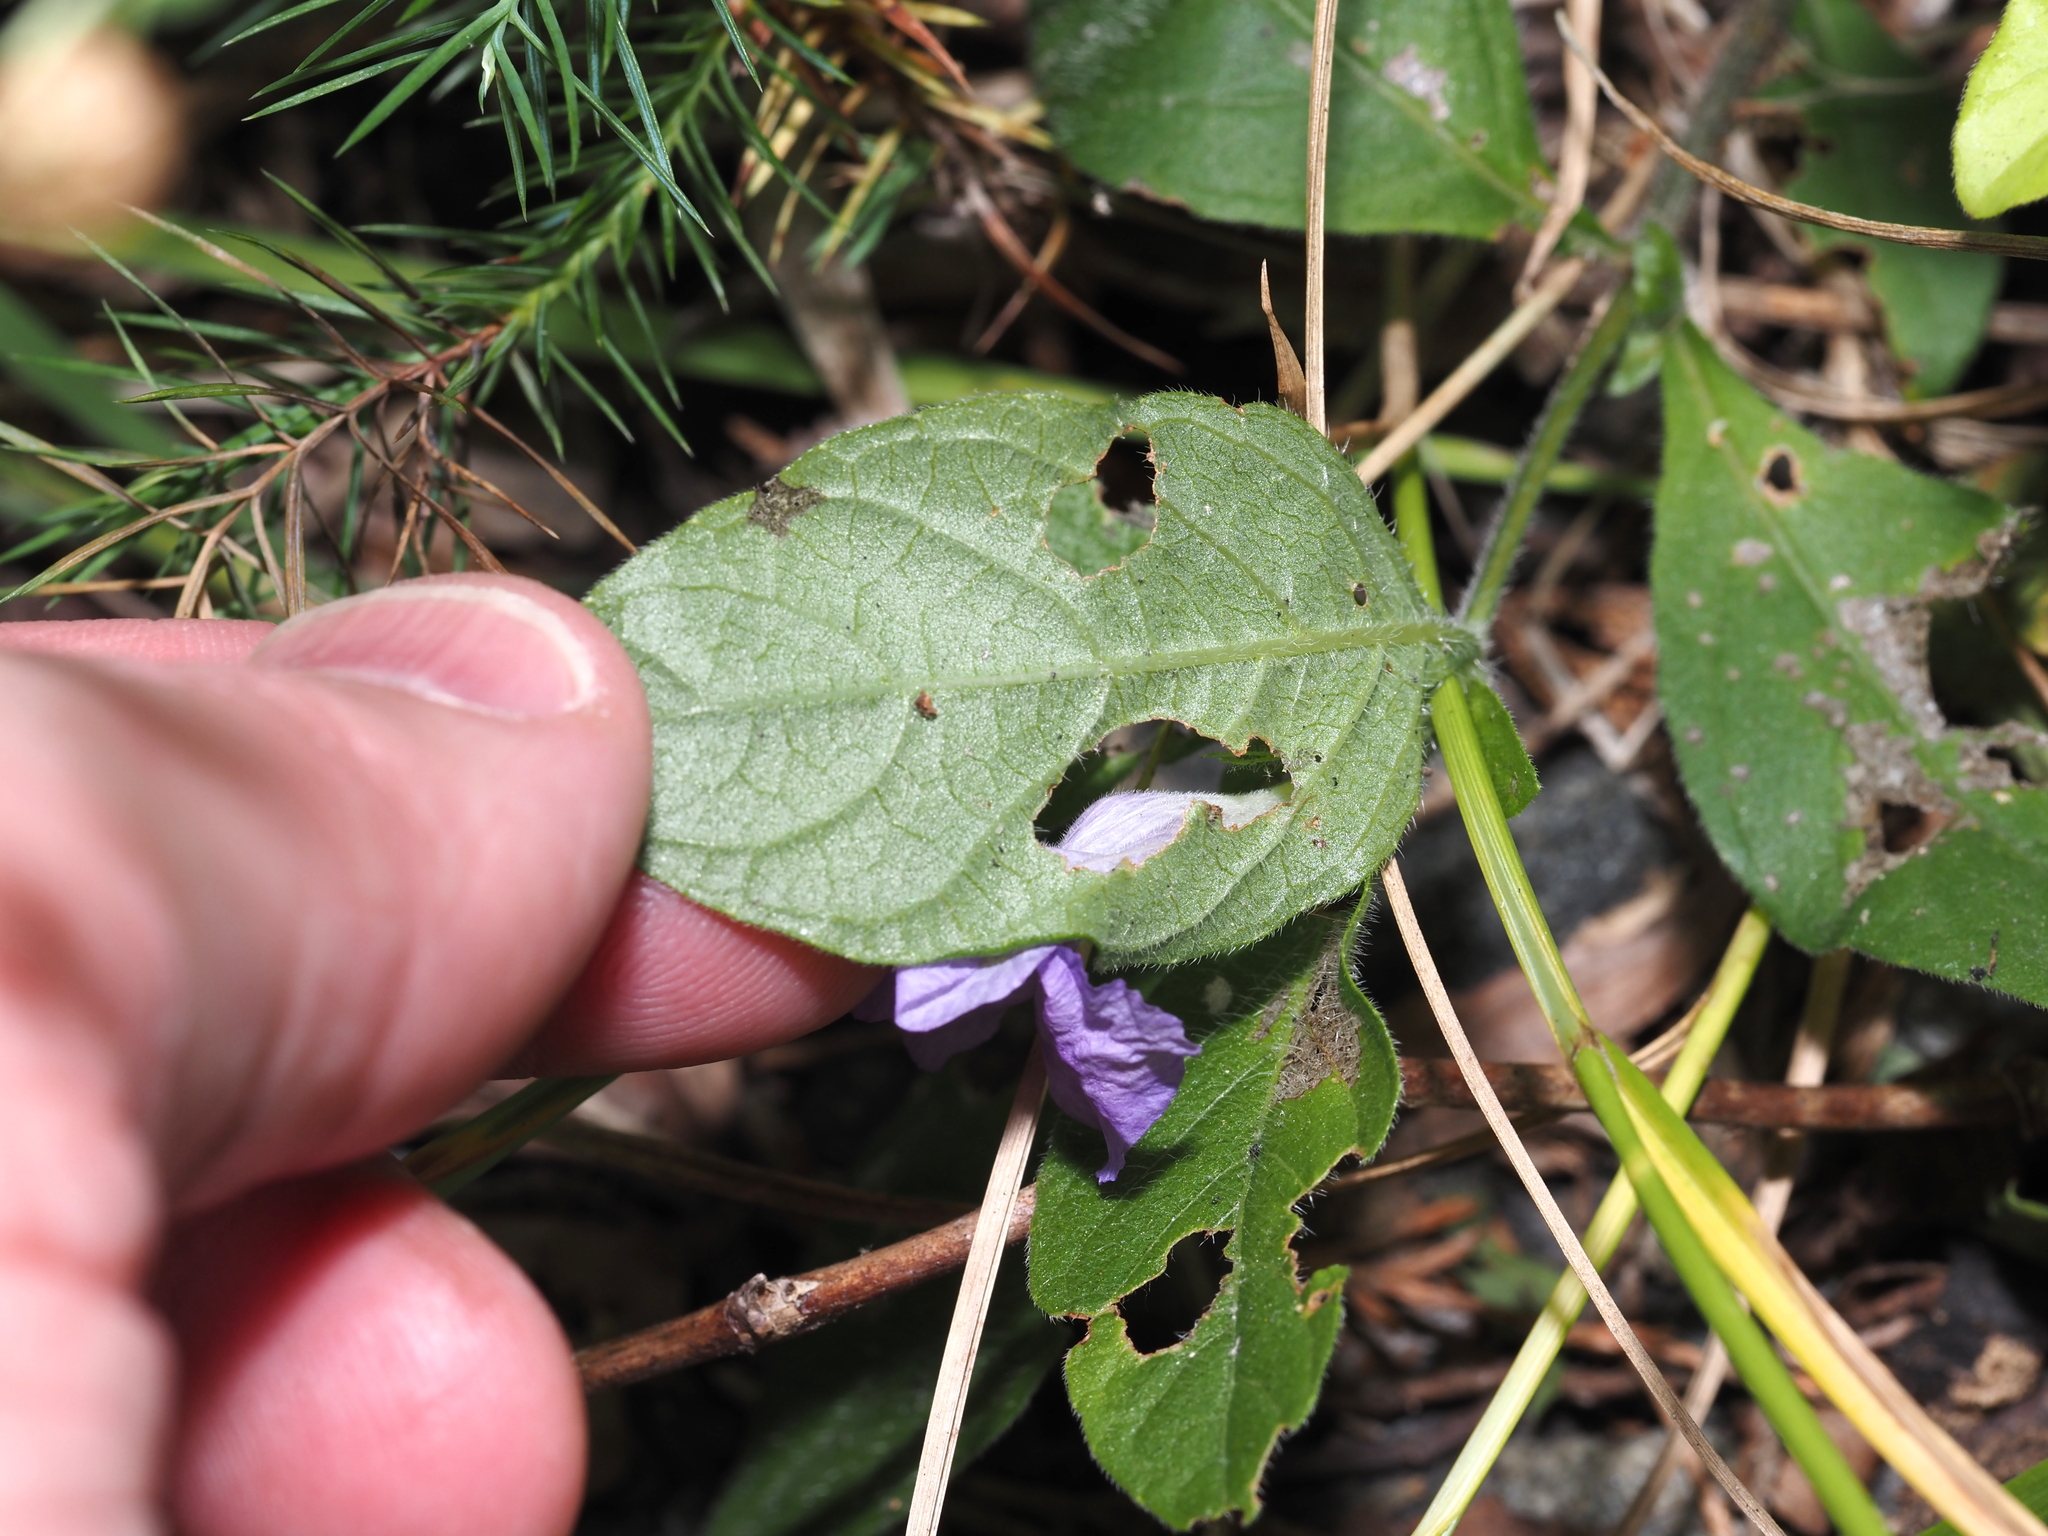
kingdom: Plantae
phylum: Tracheophyta
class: Magnoliopsida
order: Lamiales
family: Acanthaceae
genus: Ruellia
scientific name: Ruellia caroliniensis
